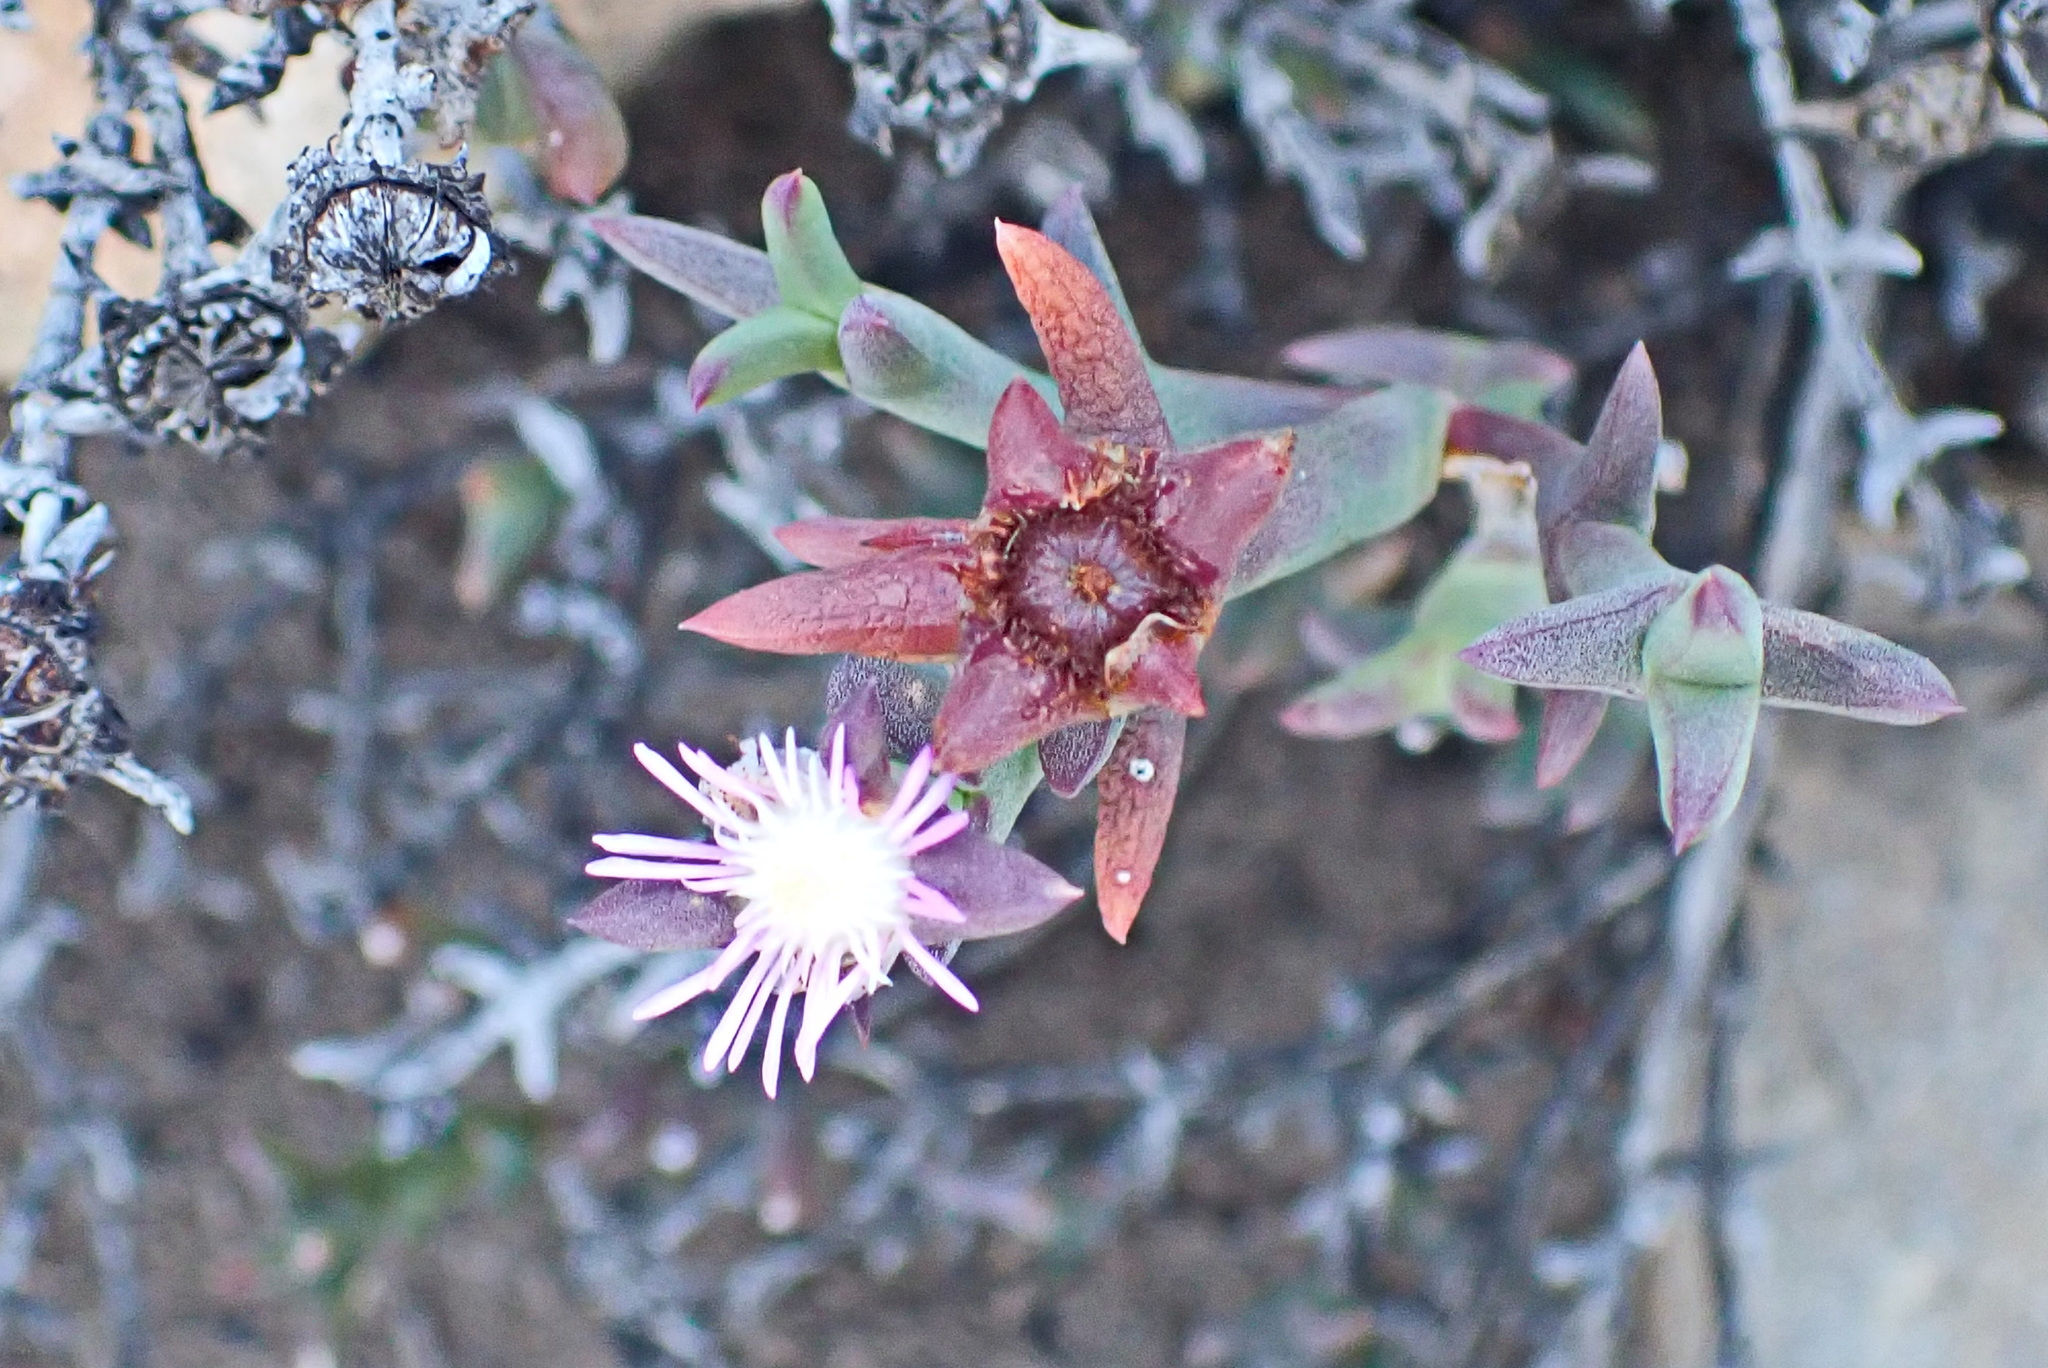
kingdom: Plantae
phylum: Tracheophyta
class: Magnoliopsida
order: Caryophyllales
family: Aizoaceae
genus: Smicrostigma
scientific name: Smicrostigma viride
